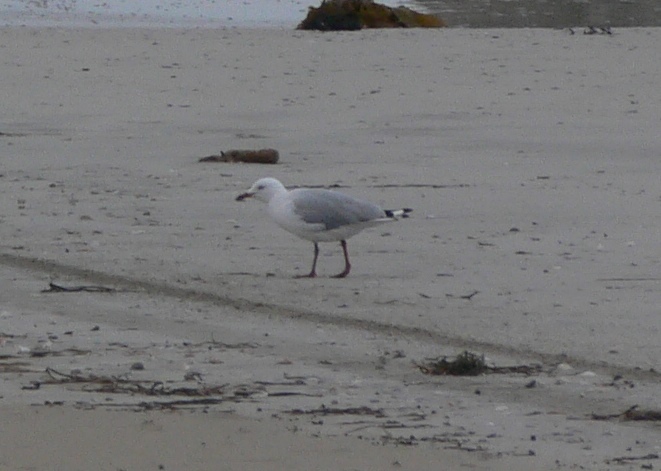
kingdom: Animalia
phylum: Chordata
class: Aves
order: Charadriiformes
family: Laridae
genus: Chroicocephalus
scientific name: Chroicocephalus novaehollandiae
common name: Silver gull
